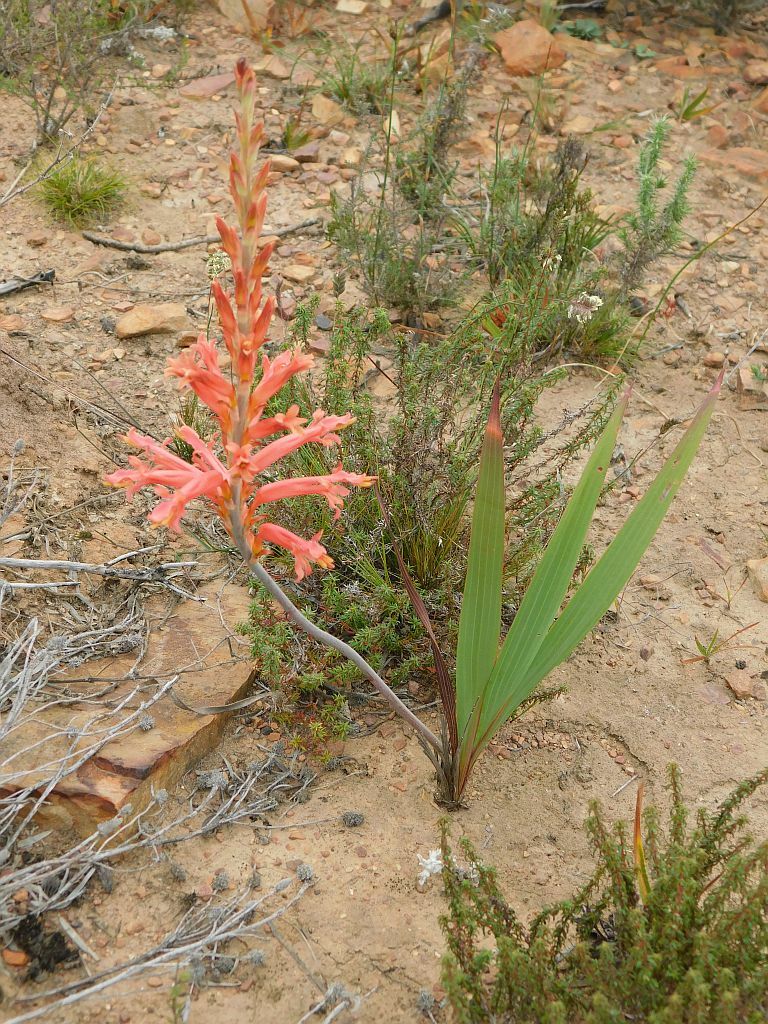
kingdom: Plantae
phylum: Tracheophyta
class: Liliopsida
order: Asparagales
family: Iridaceae
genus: Tritoniopsis
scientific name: Tritoniopsis antholyza
